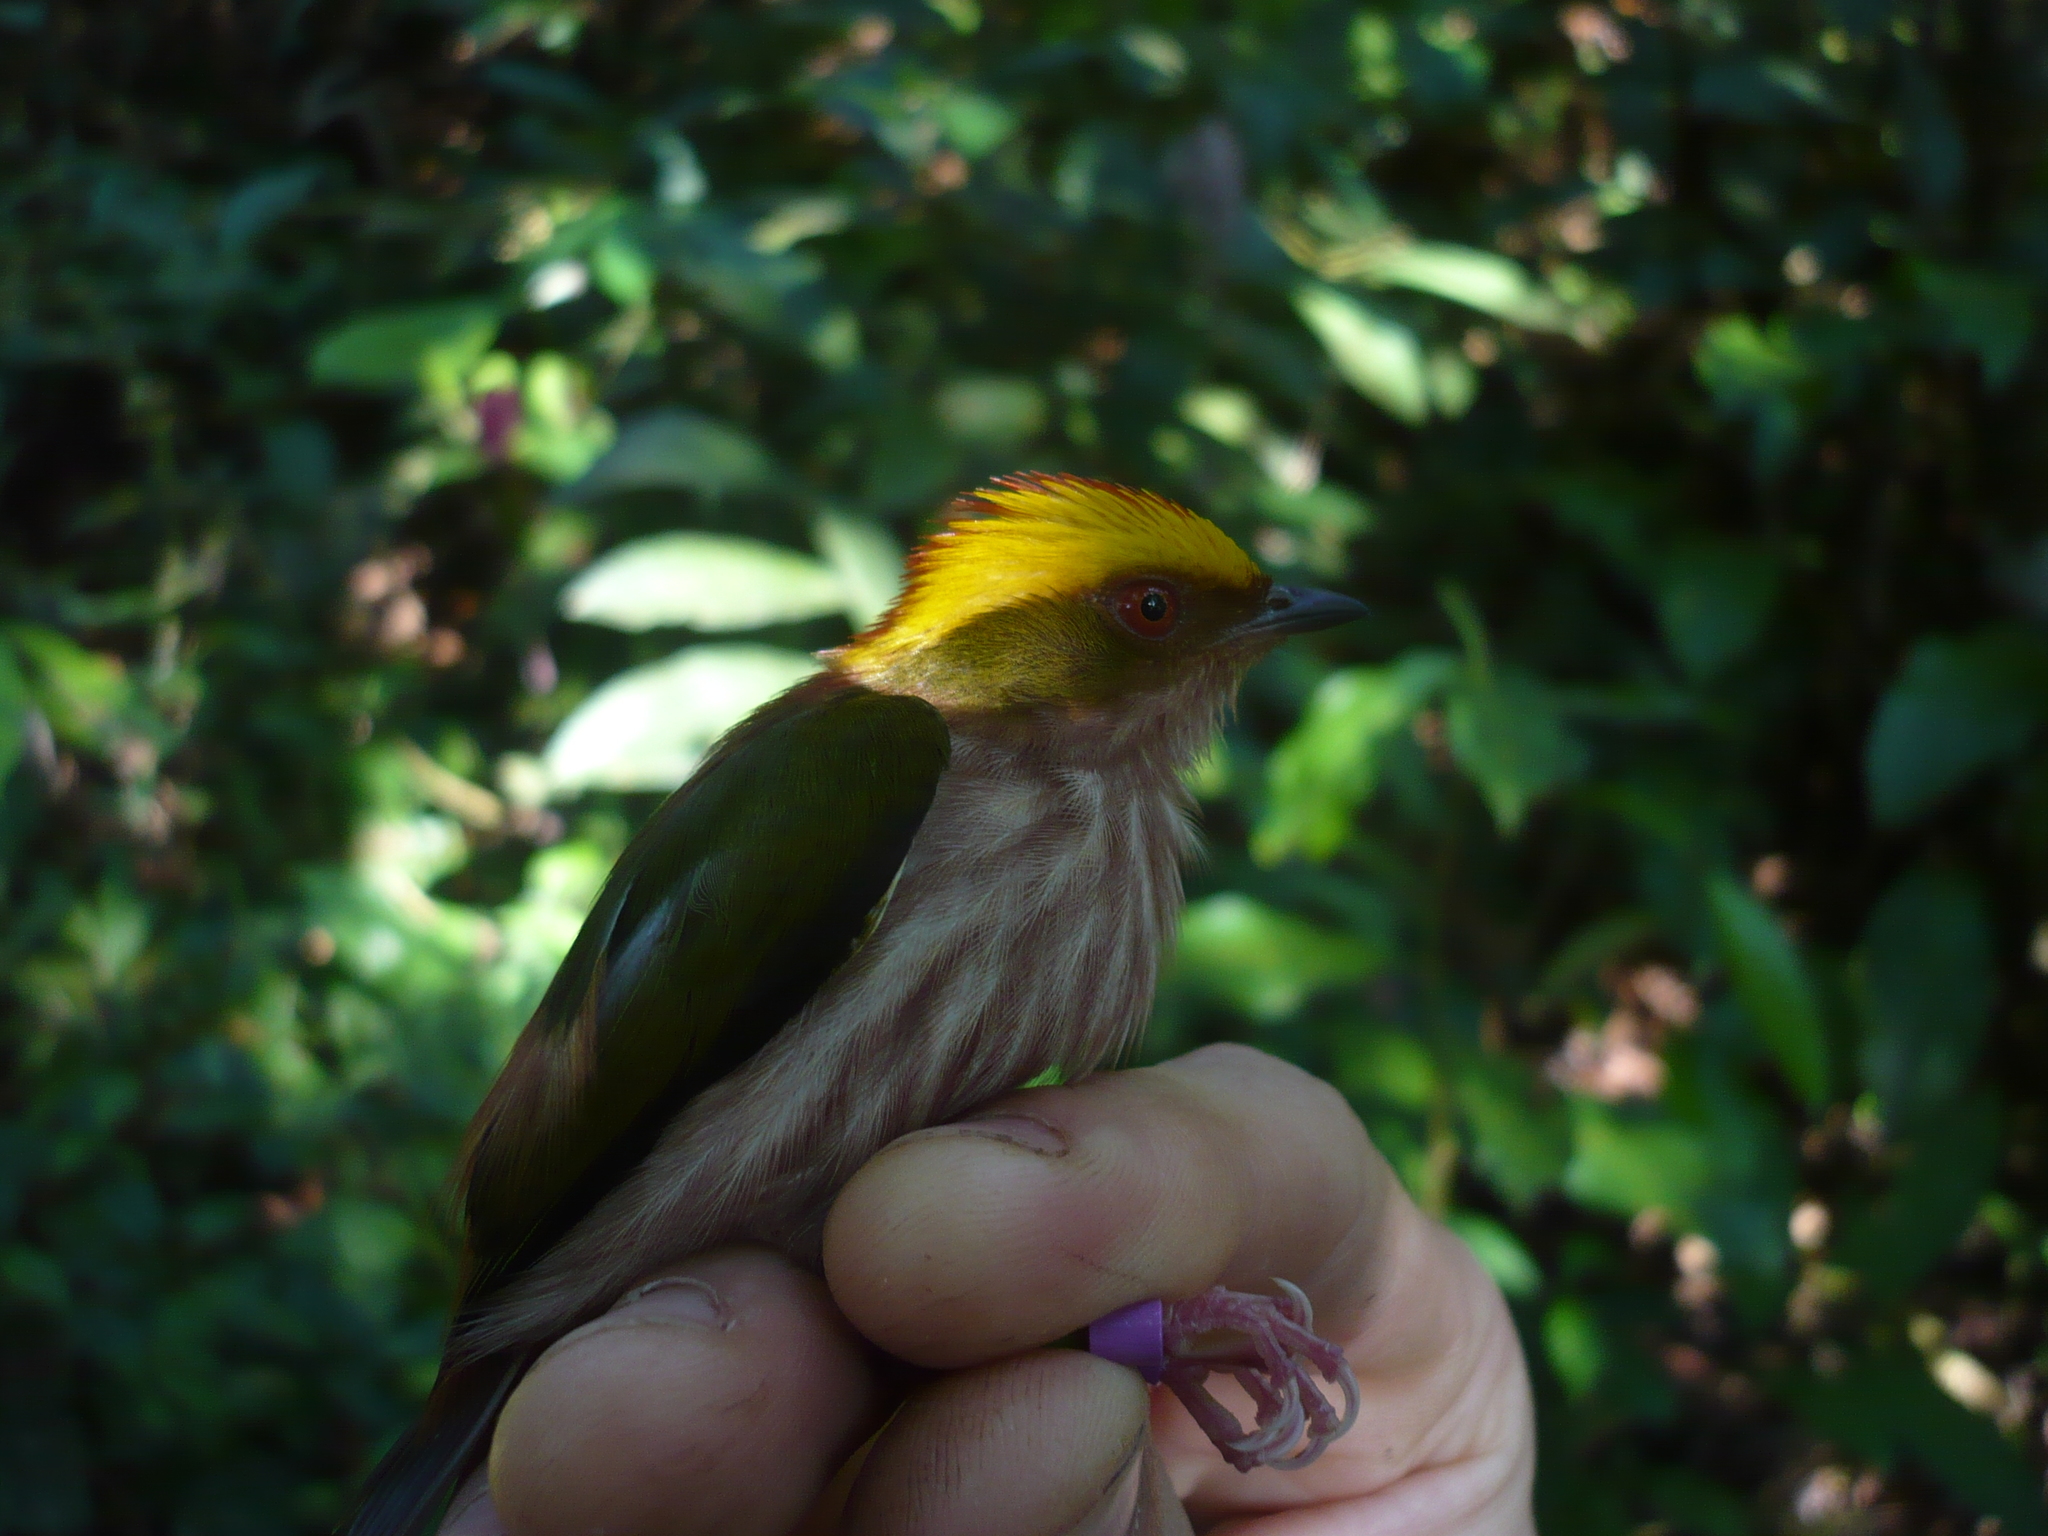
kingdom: Animalia
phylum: Chordata
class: Aves
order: Passeriformes
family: Pipridae
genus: Machaeropterus
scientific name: Machaeropterus pyrocephalus
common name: Fiery-capped manakin
